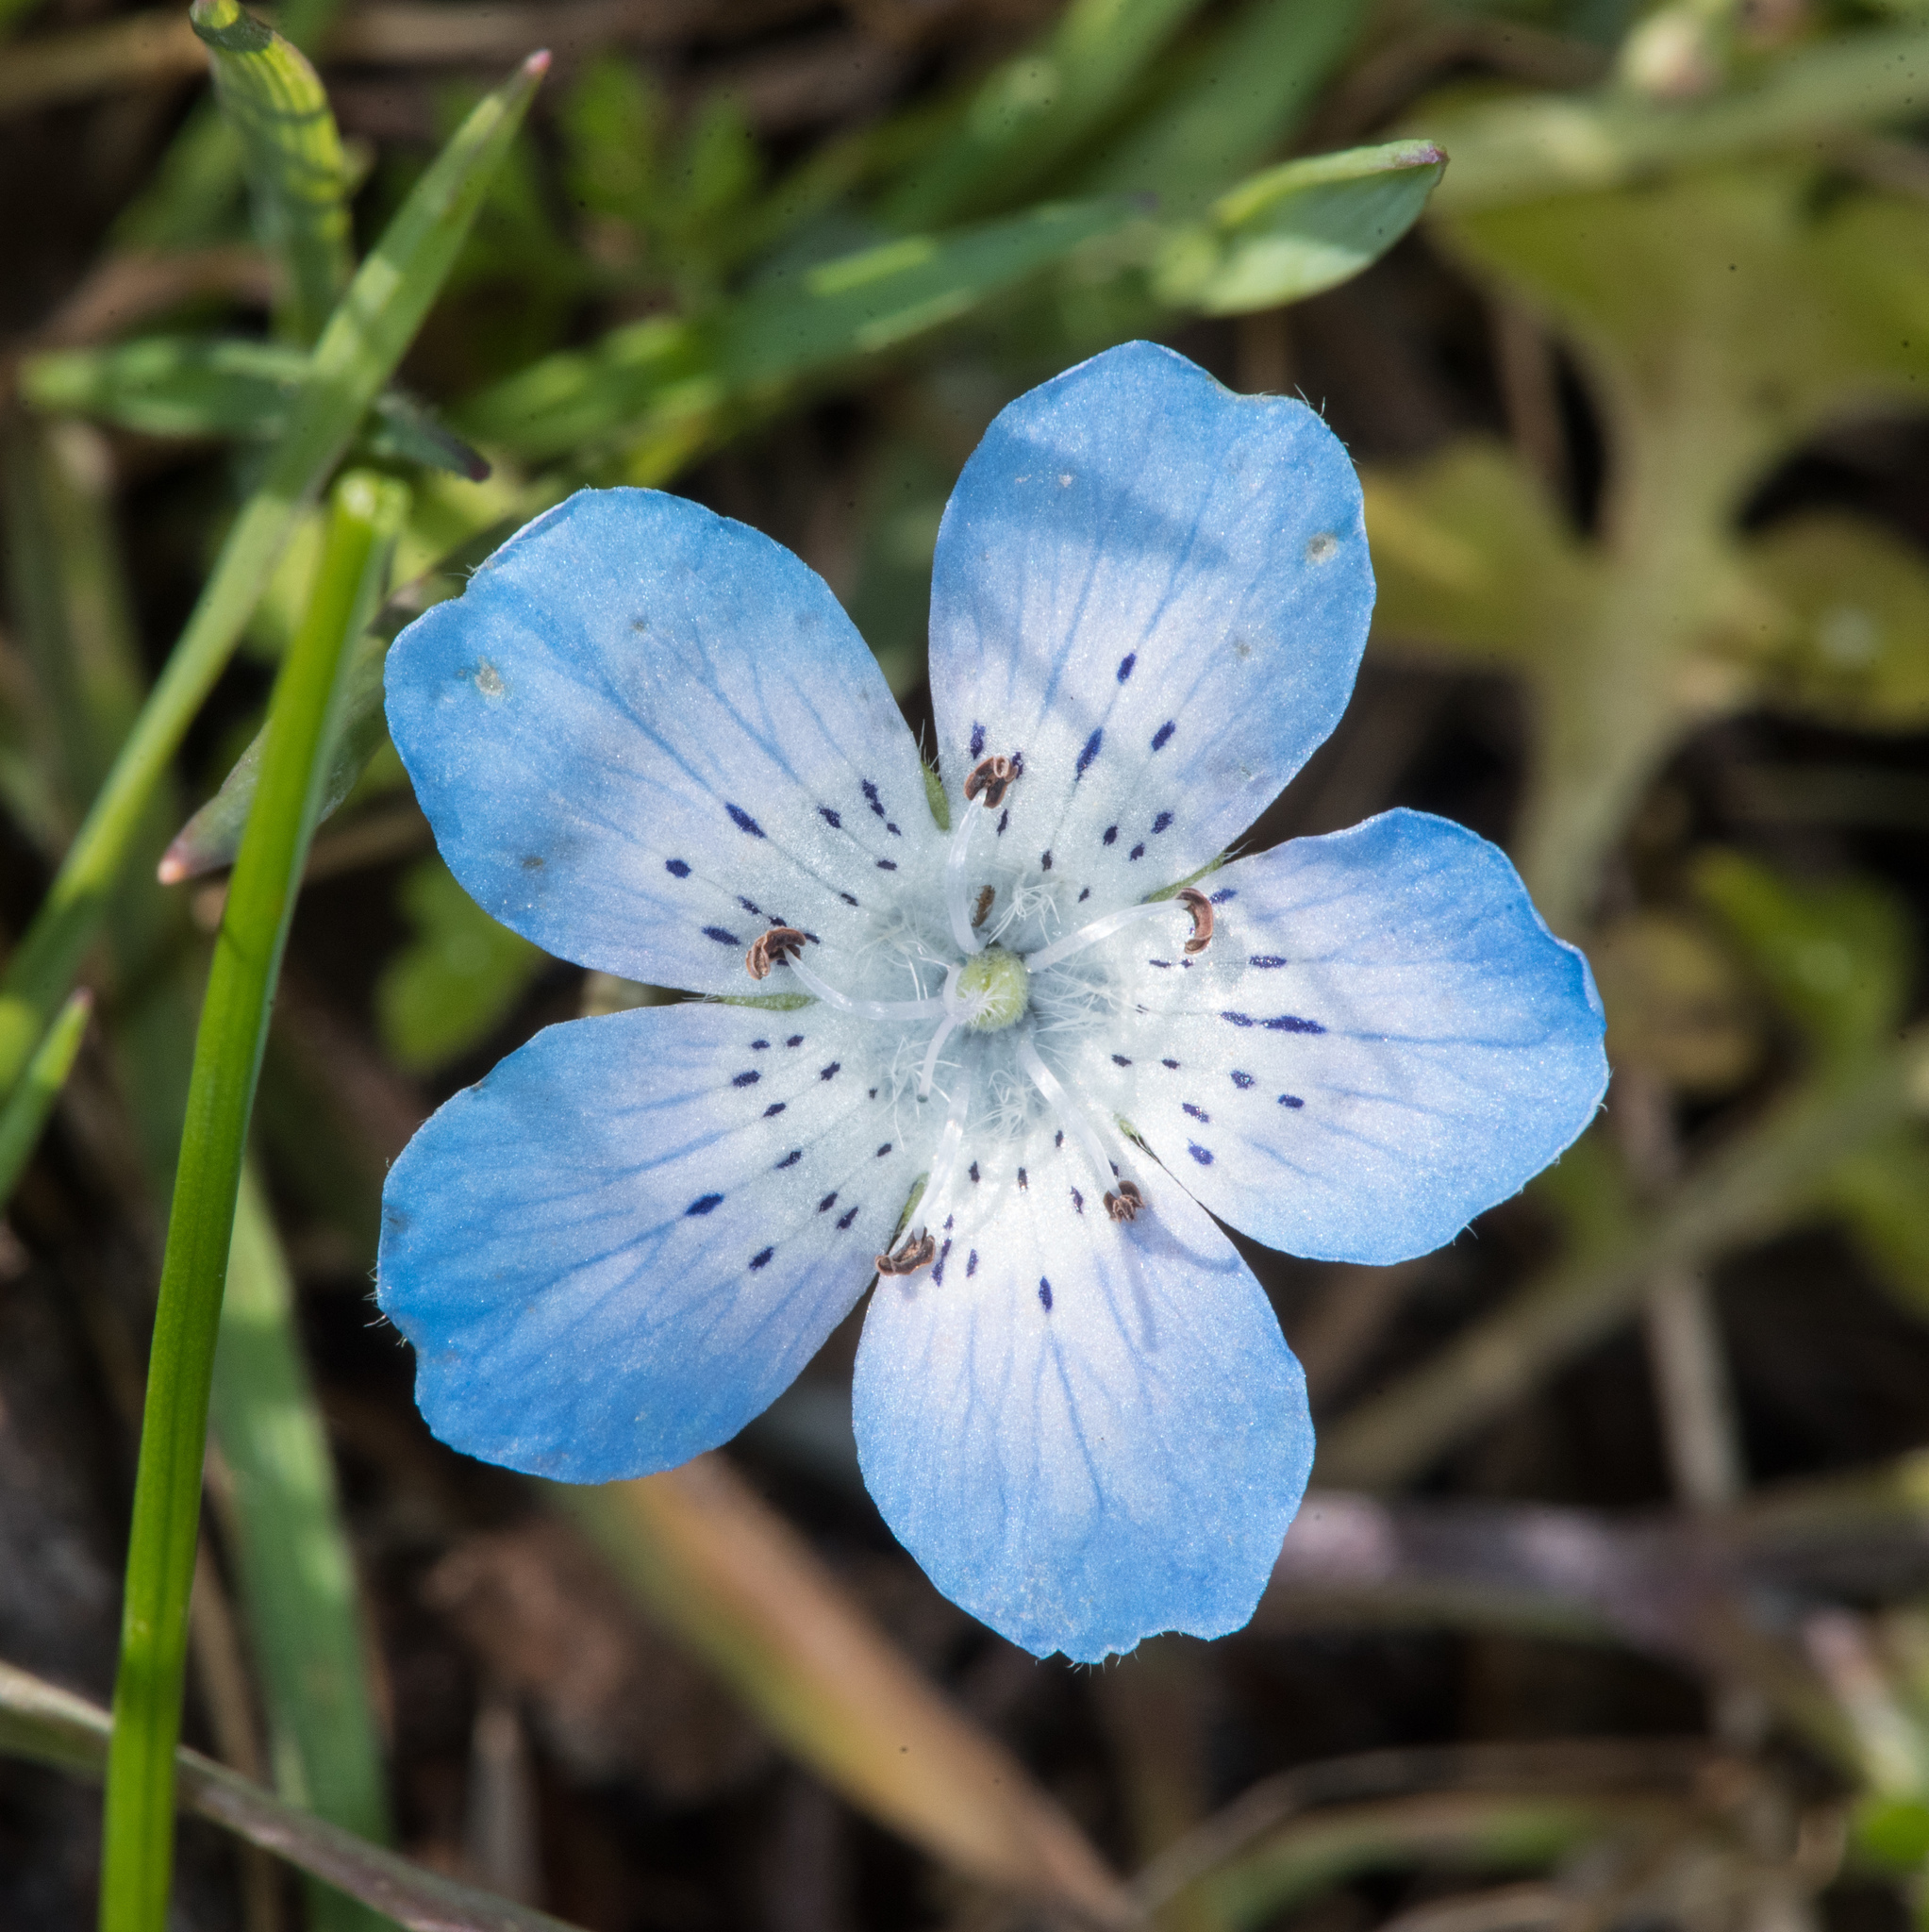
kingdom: Plantae
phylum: Tracheophyta
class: Magnoliopsida
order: Boraginales
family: Hydrophyllaceae
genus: Nemophila
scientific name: Nemophila menziesii
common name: Baby's-blue-eyes
